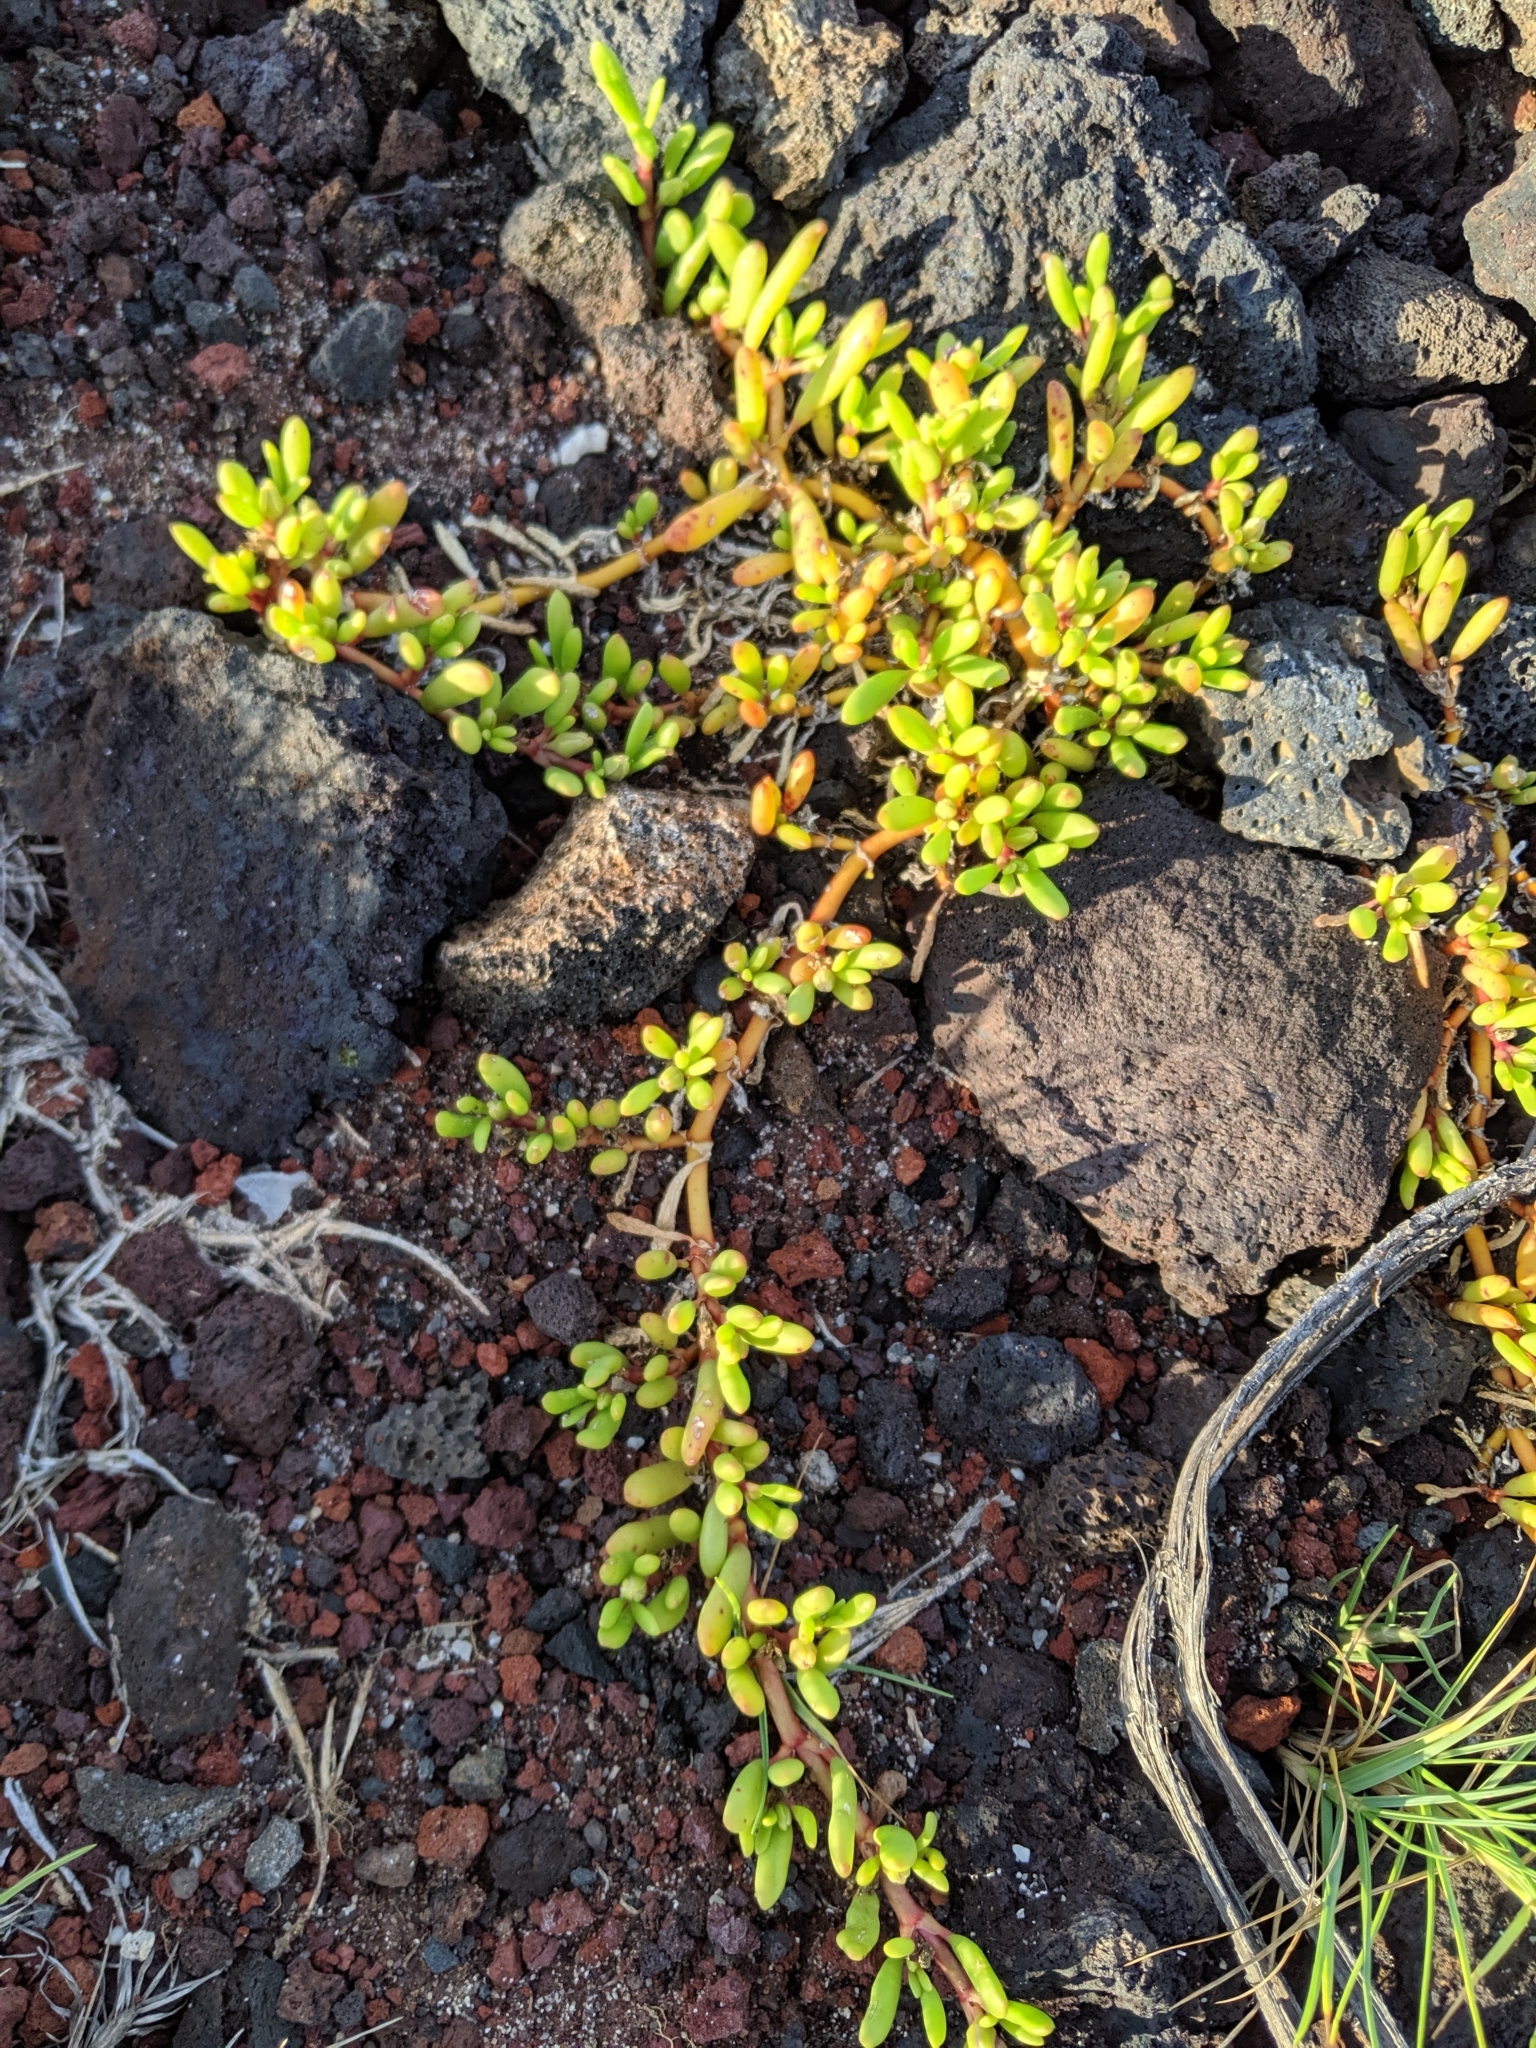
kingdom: Plantae
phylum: Tracheophyta
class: Magnoliopsida
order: Caryophyllales
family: Aizoaceae
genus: Sesuvium
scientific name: Sesuvium portulacastrum
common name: Sea-purslane
